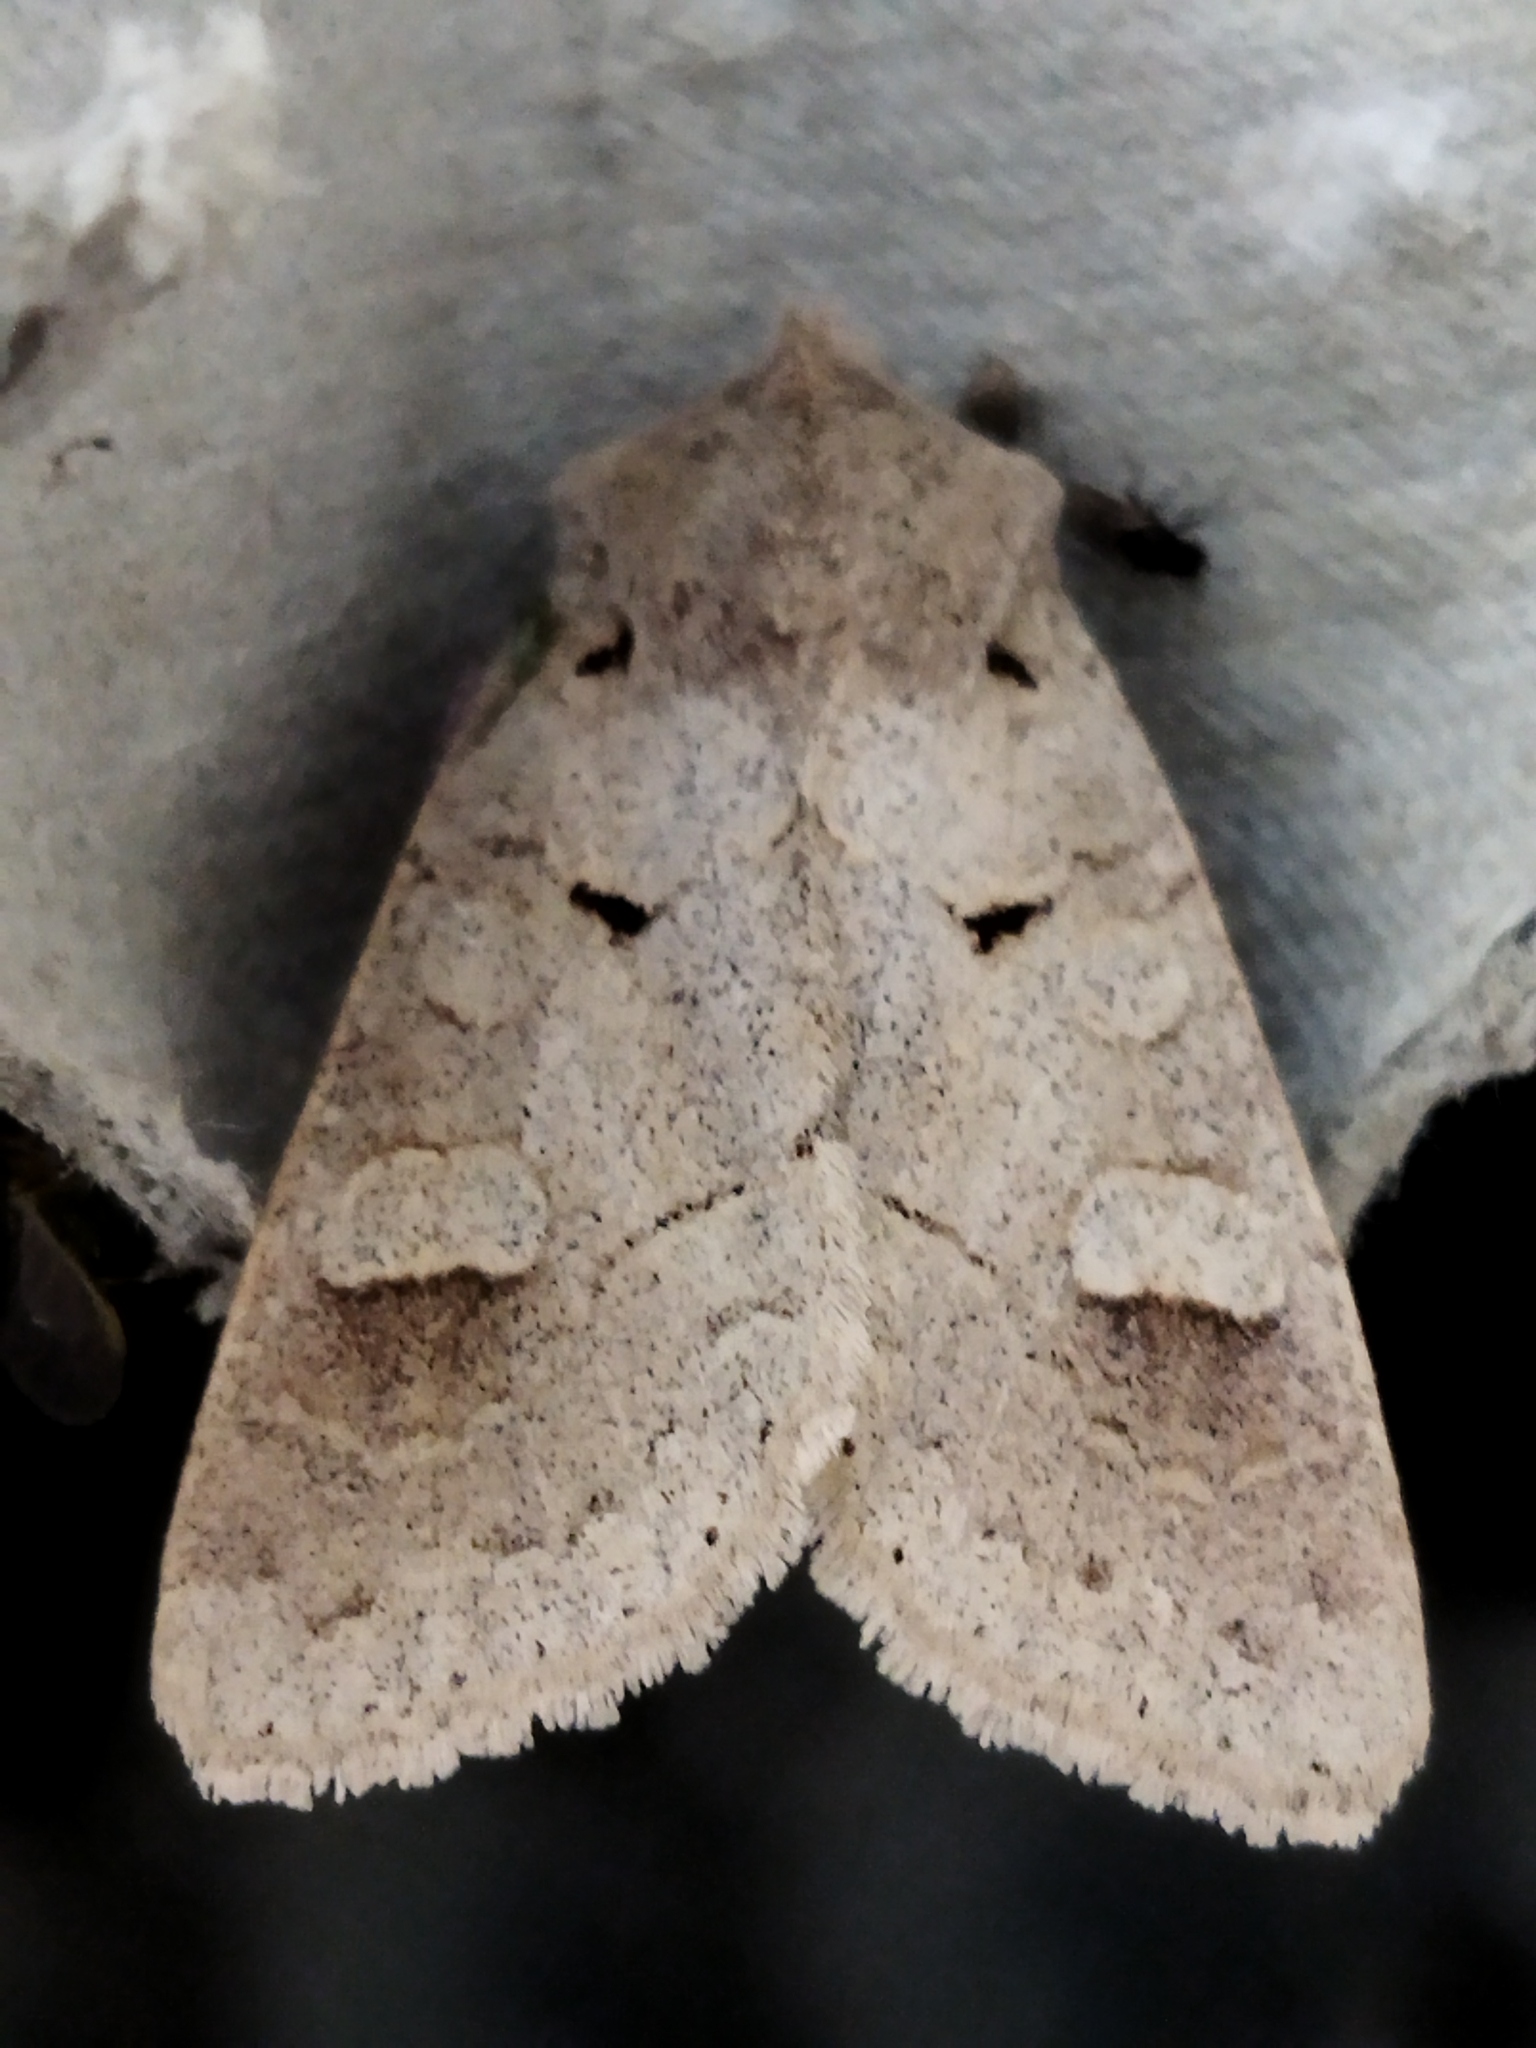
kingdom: Animalia
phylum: Arthropoda
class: Insecta
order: Lepidoptera
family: Noctuidae
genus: Ammoconia
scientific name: Ammoconia caecimacula
